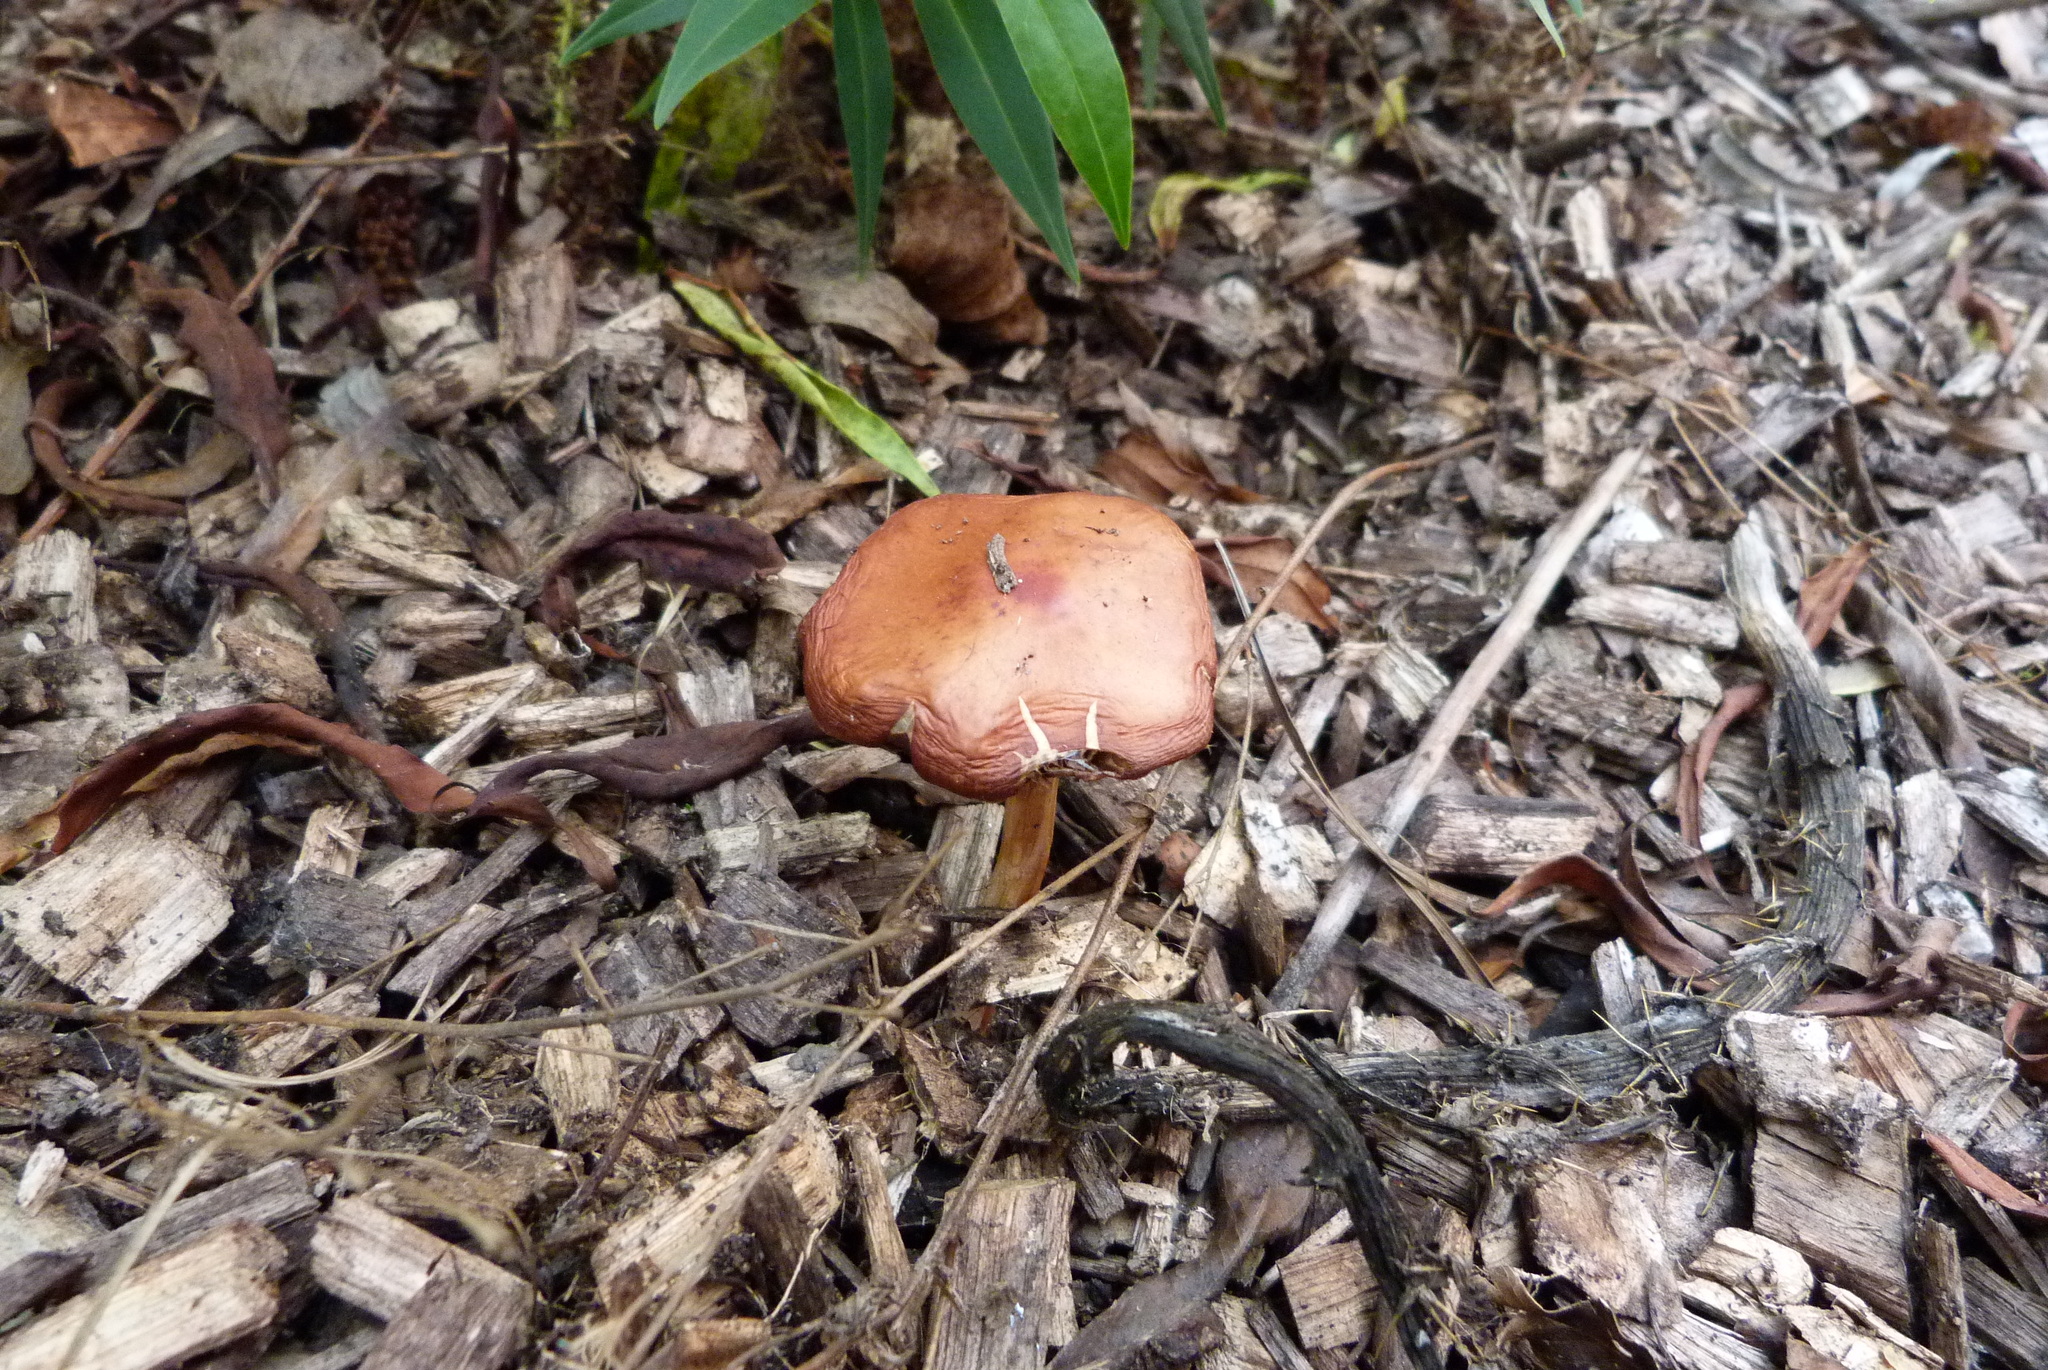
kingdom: Fungi
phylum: Basidiomycota
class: Agaricomycetes
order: Agaricales
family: Strophariaceae
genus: Leratiomyces
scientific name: Leratiomyces ceres
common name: Redlead roundhead
